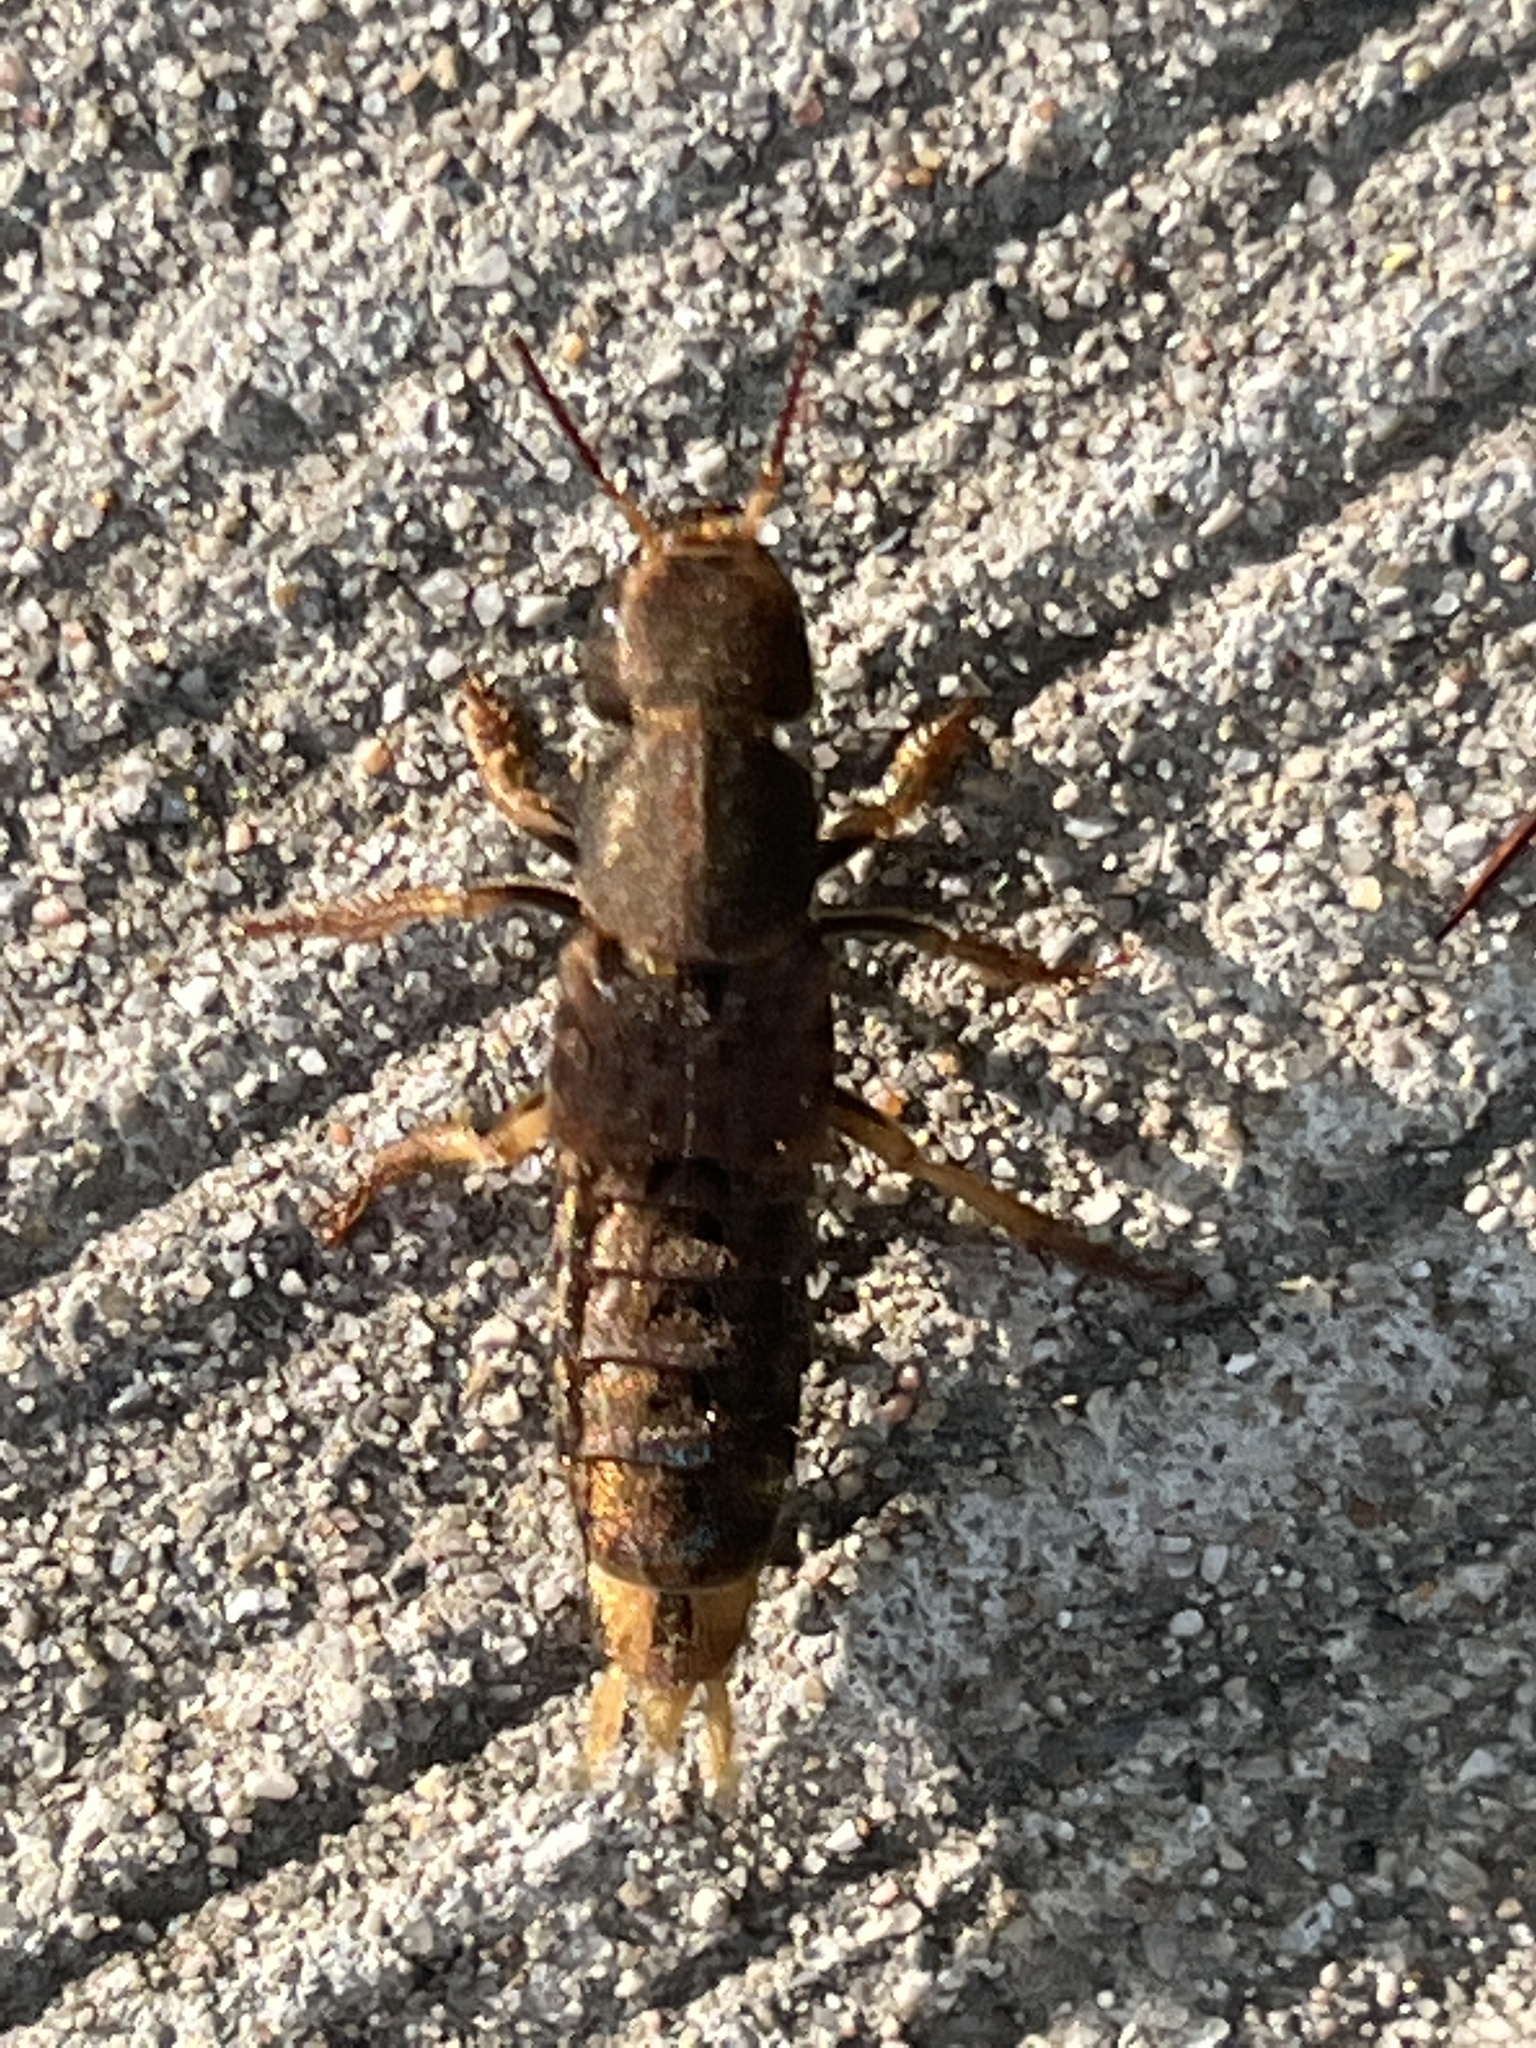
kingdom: Animalia
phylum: Arthropoda
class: Insecta
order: Coleoptera
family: Staphylinidae
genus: Platydracus
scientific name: Platydracus maculosus
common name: Brown rove beetle
